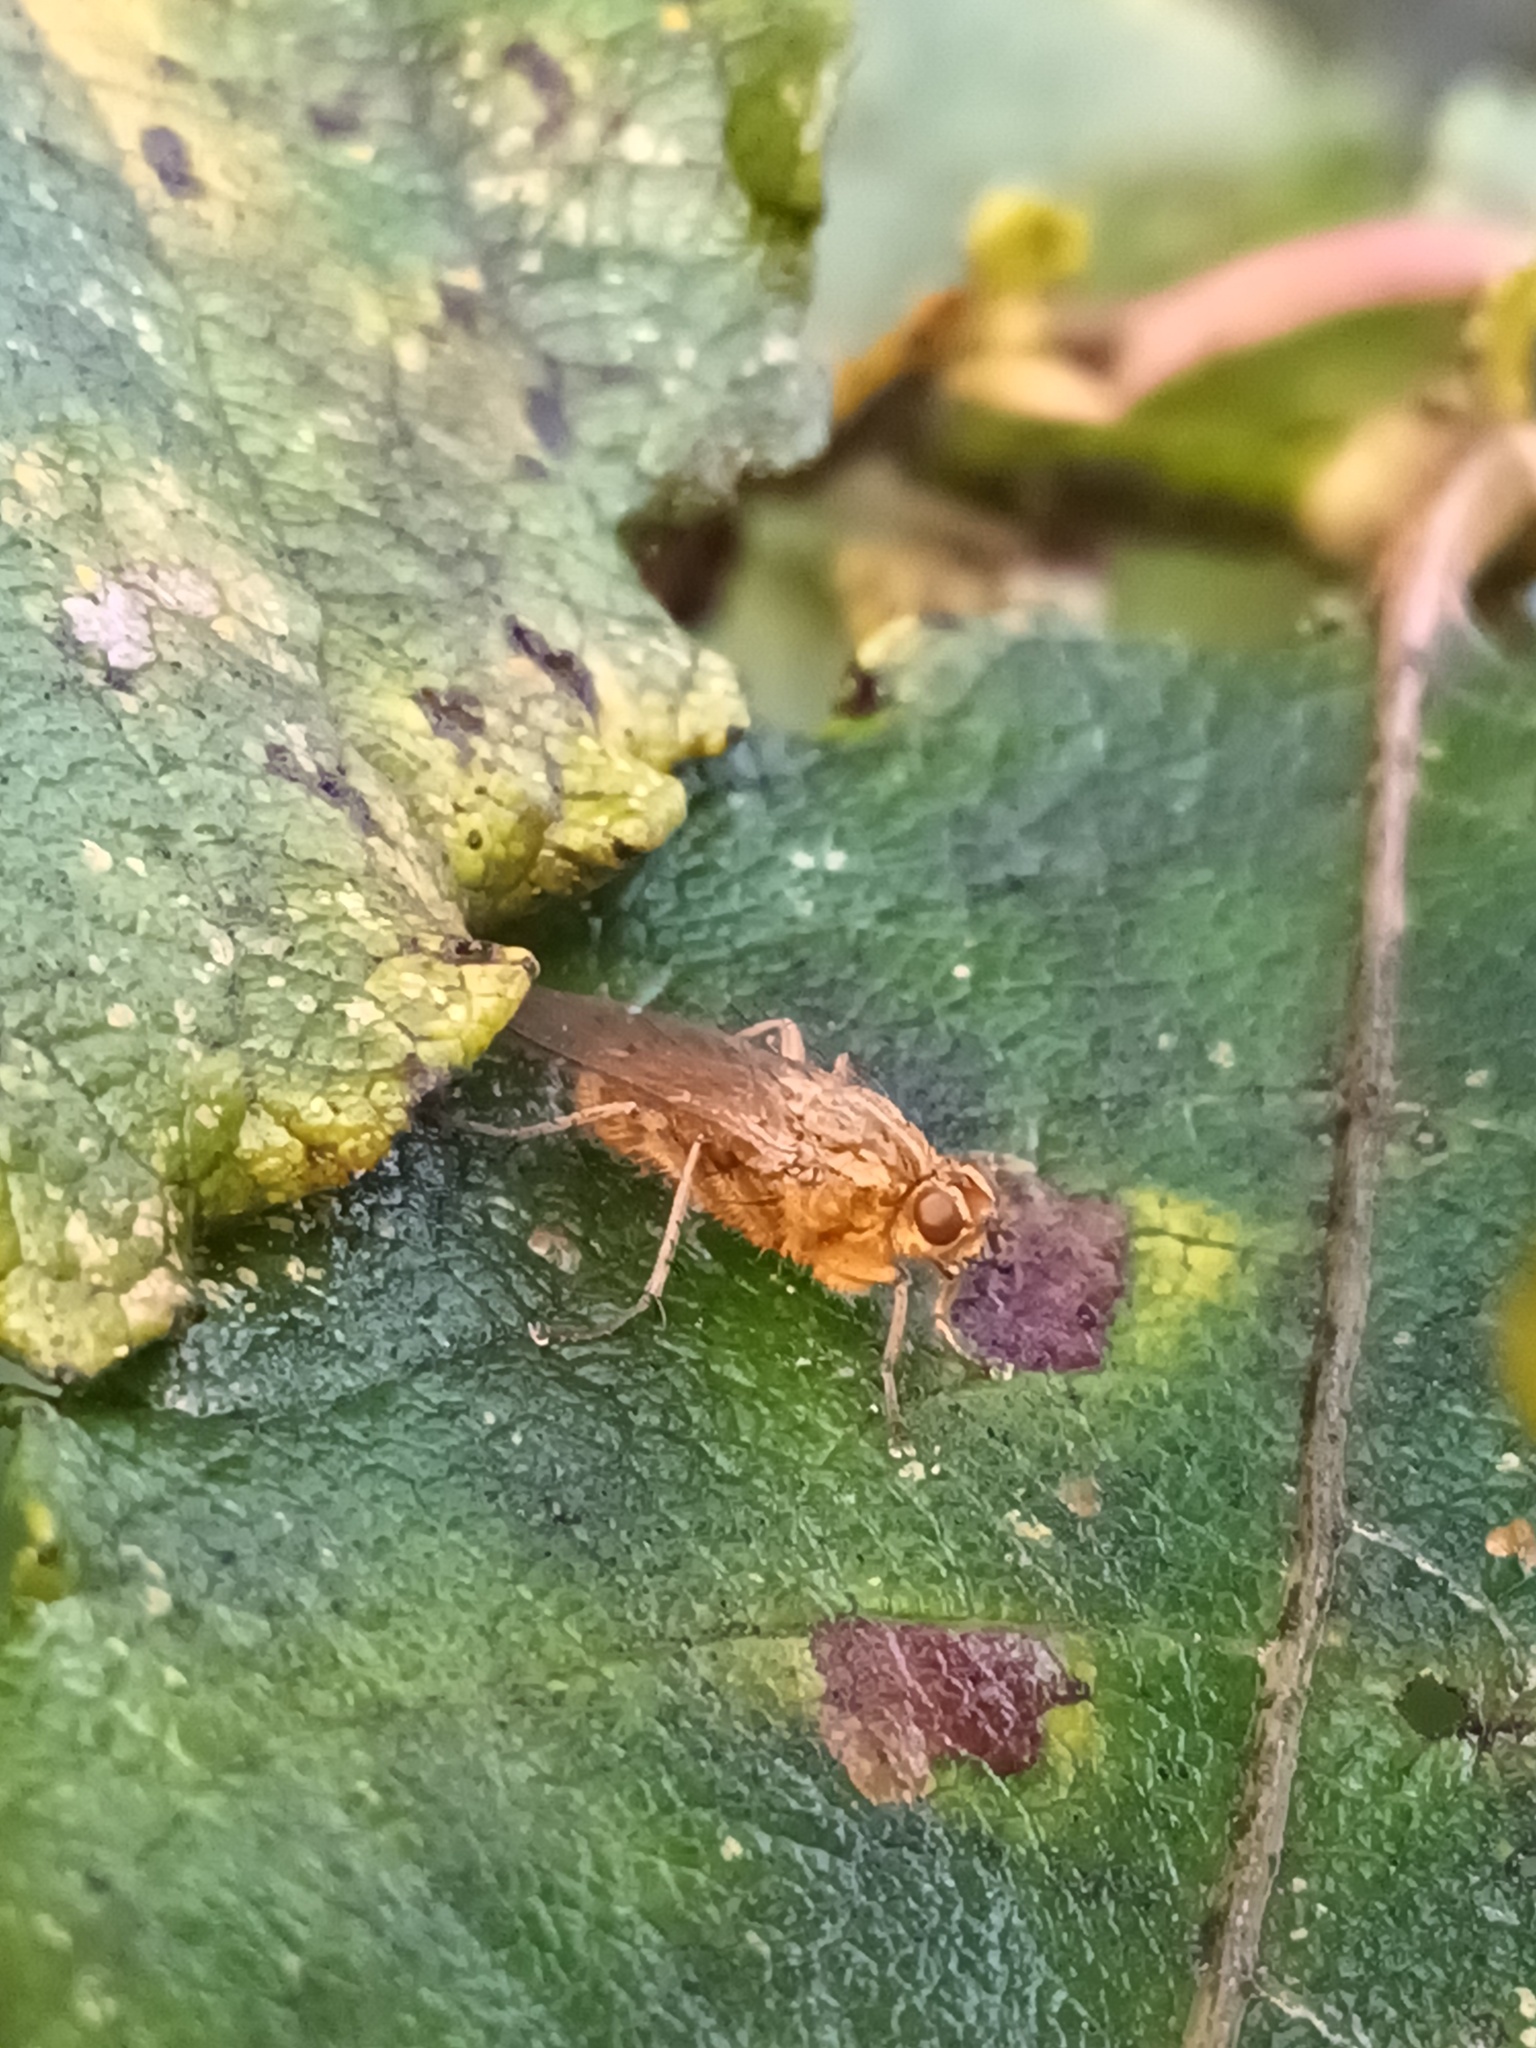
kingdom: Animalia
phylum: Arthropoda
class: Insecta
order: Diptera
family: Scathophagidae
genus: Scathophaga
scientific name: Scathophaga stercoraria
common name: Yellow dung fly
